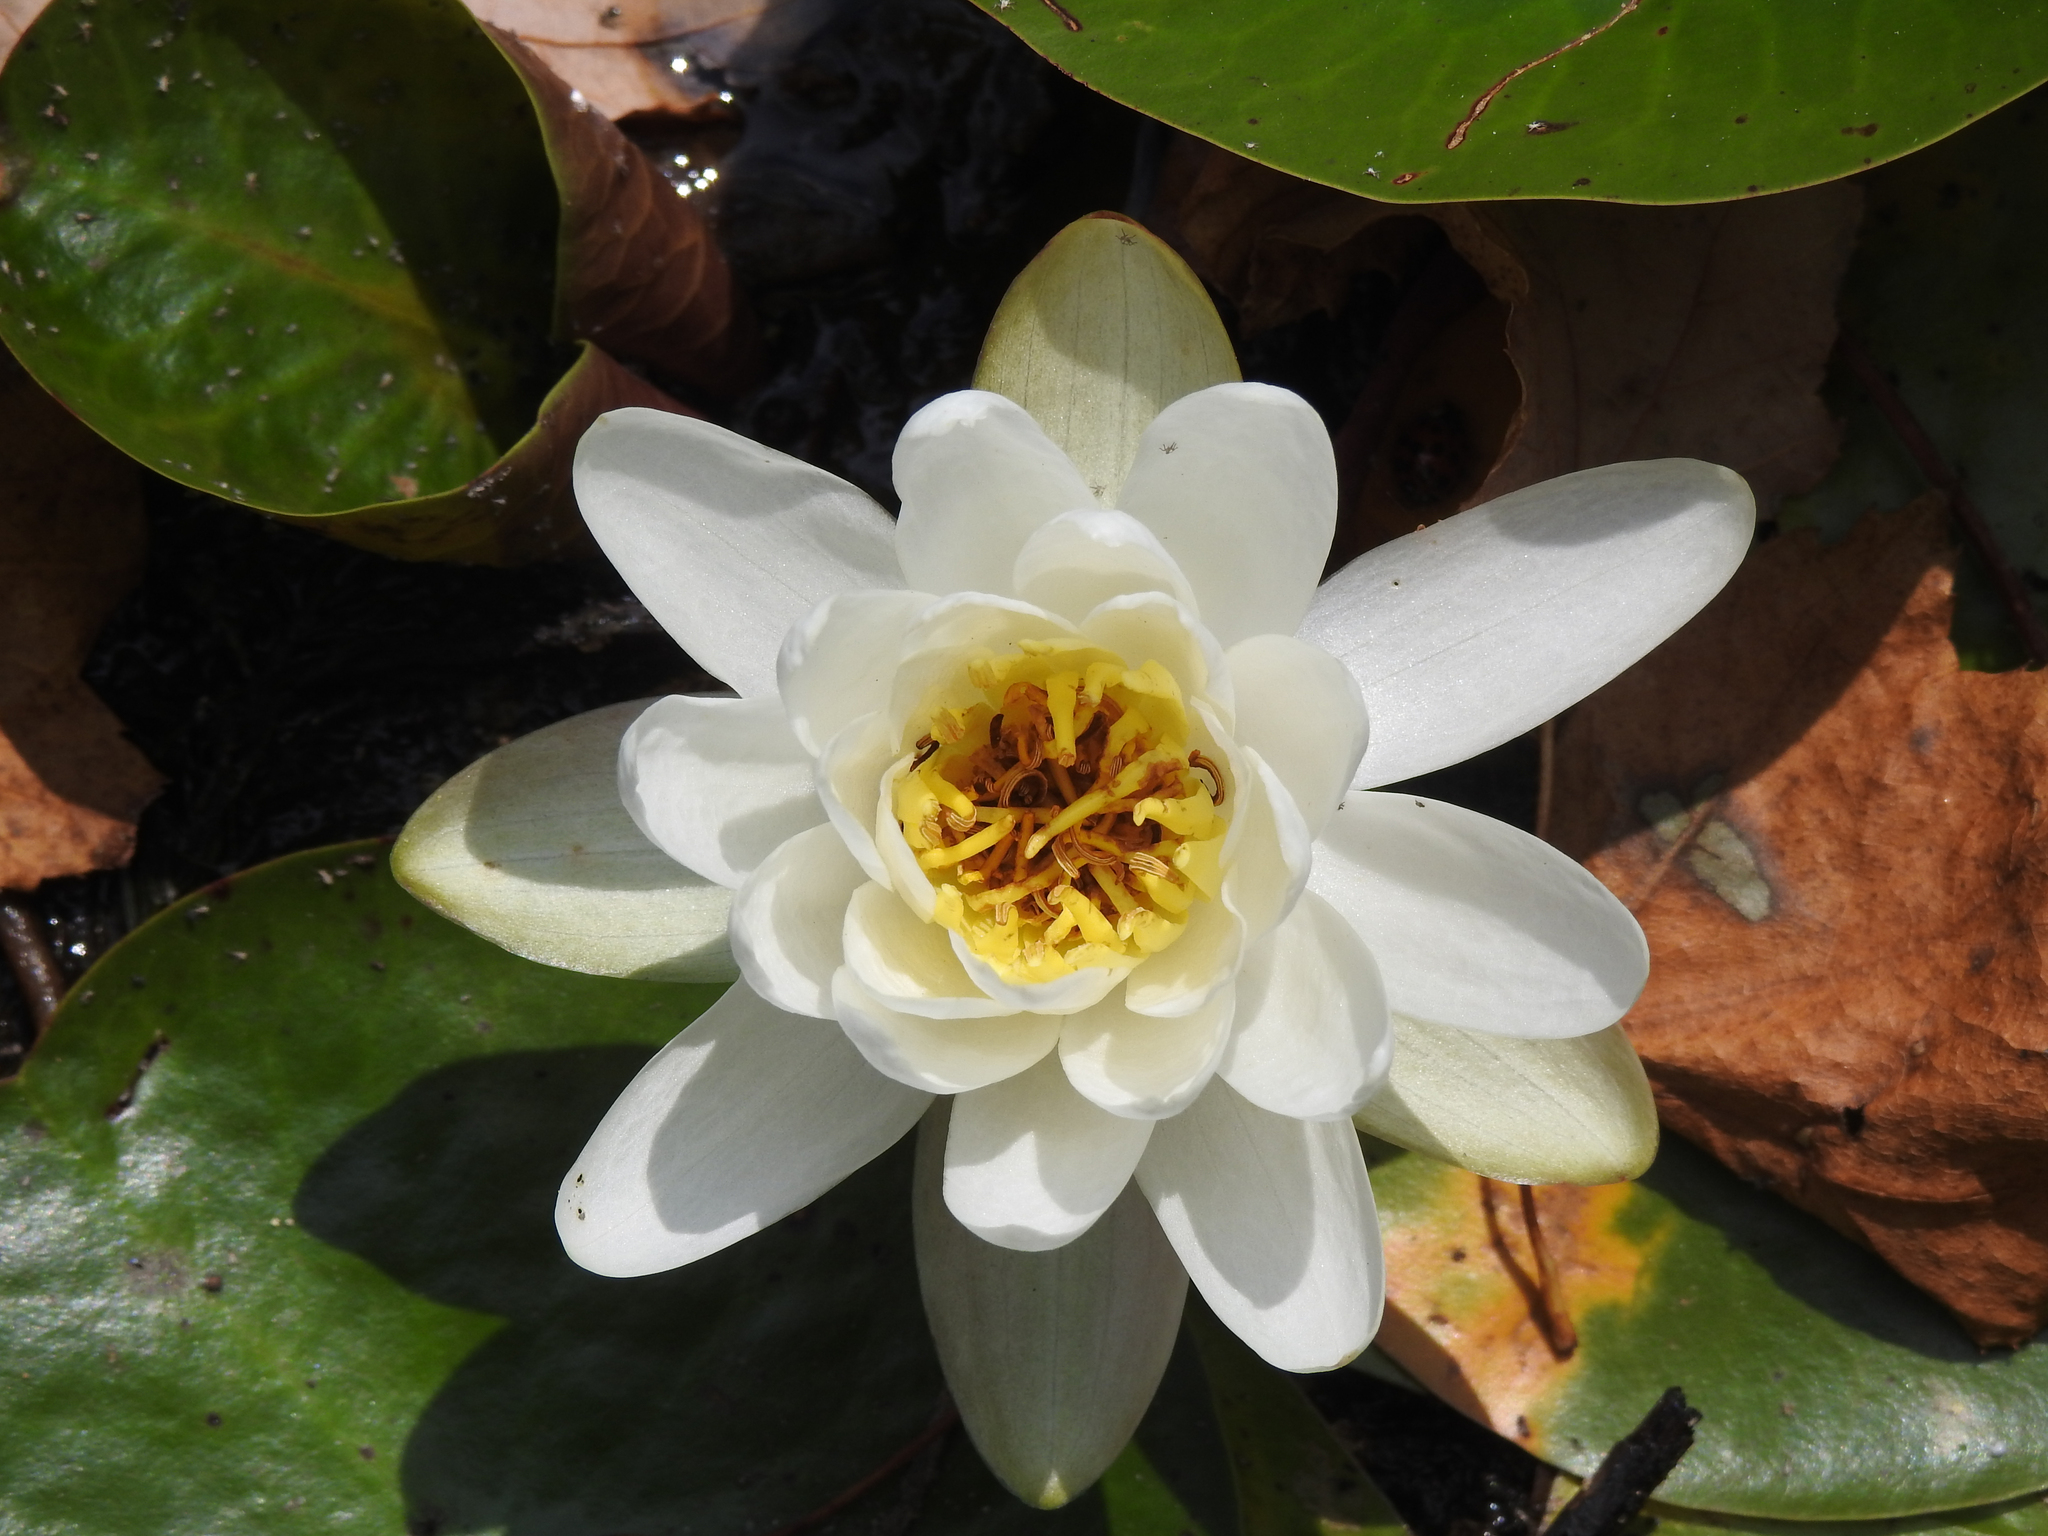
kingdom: Plantae
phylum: Tracheophyta
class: Magnoliopsida
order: Nymphaeales
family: Nymphaeaceae
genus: Nymphaea
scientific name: Nymphaea odorata
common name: Fragrant water-lily
